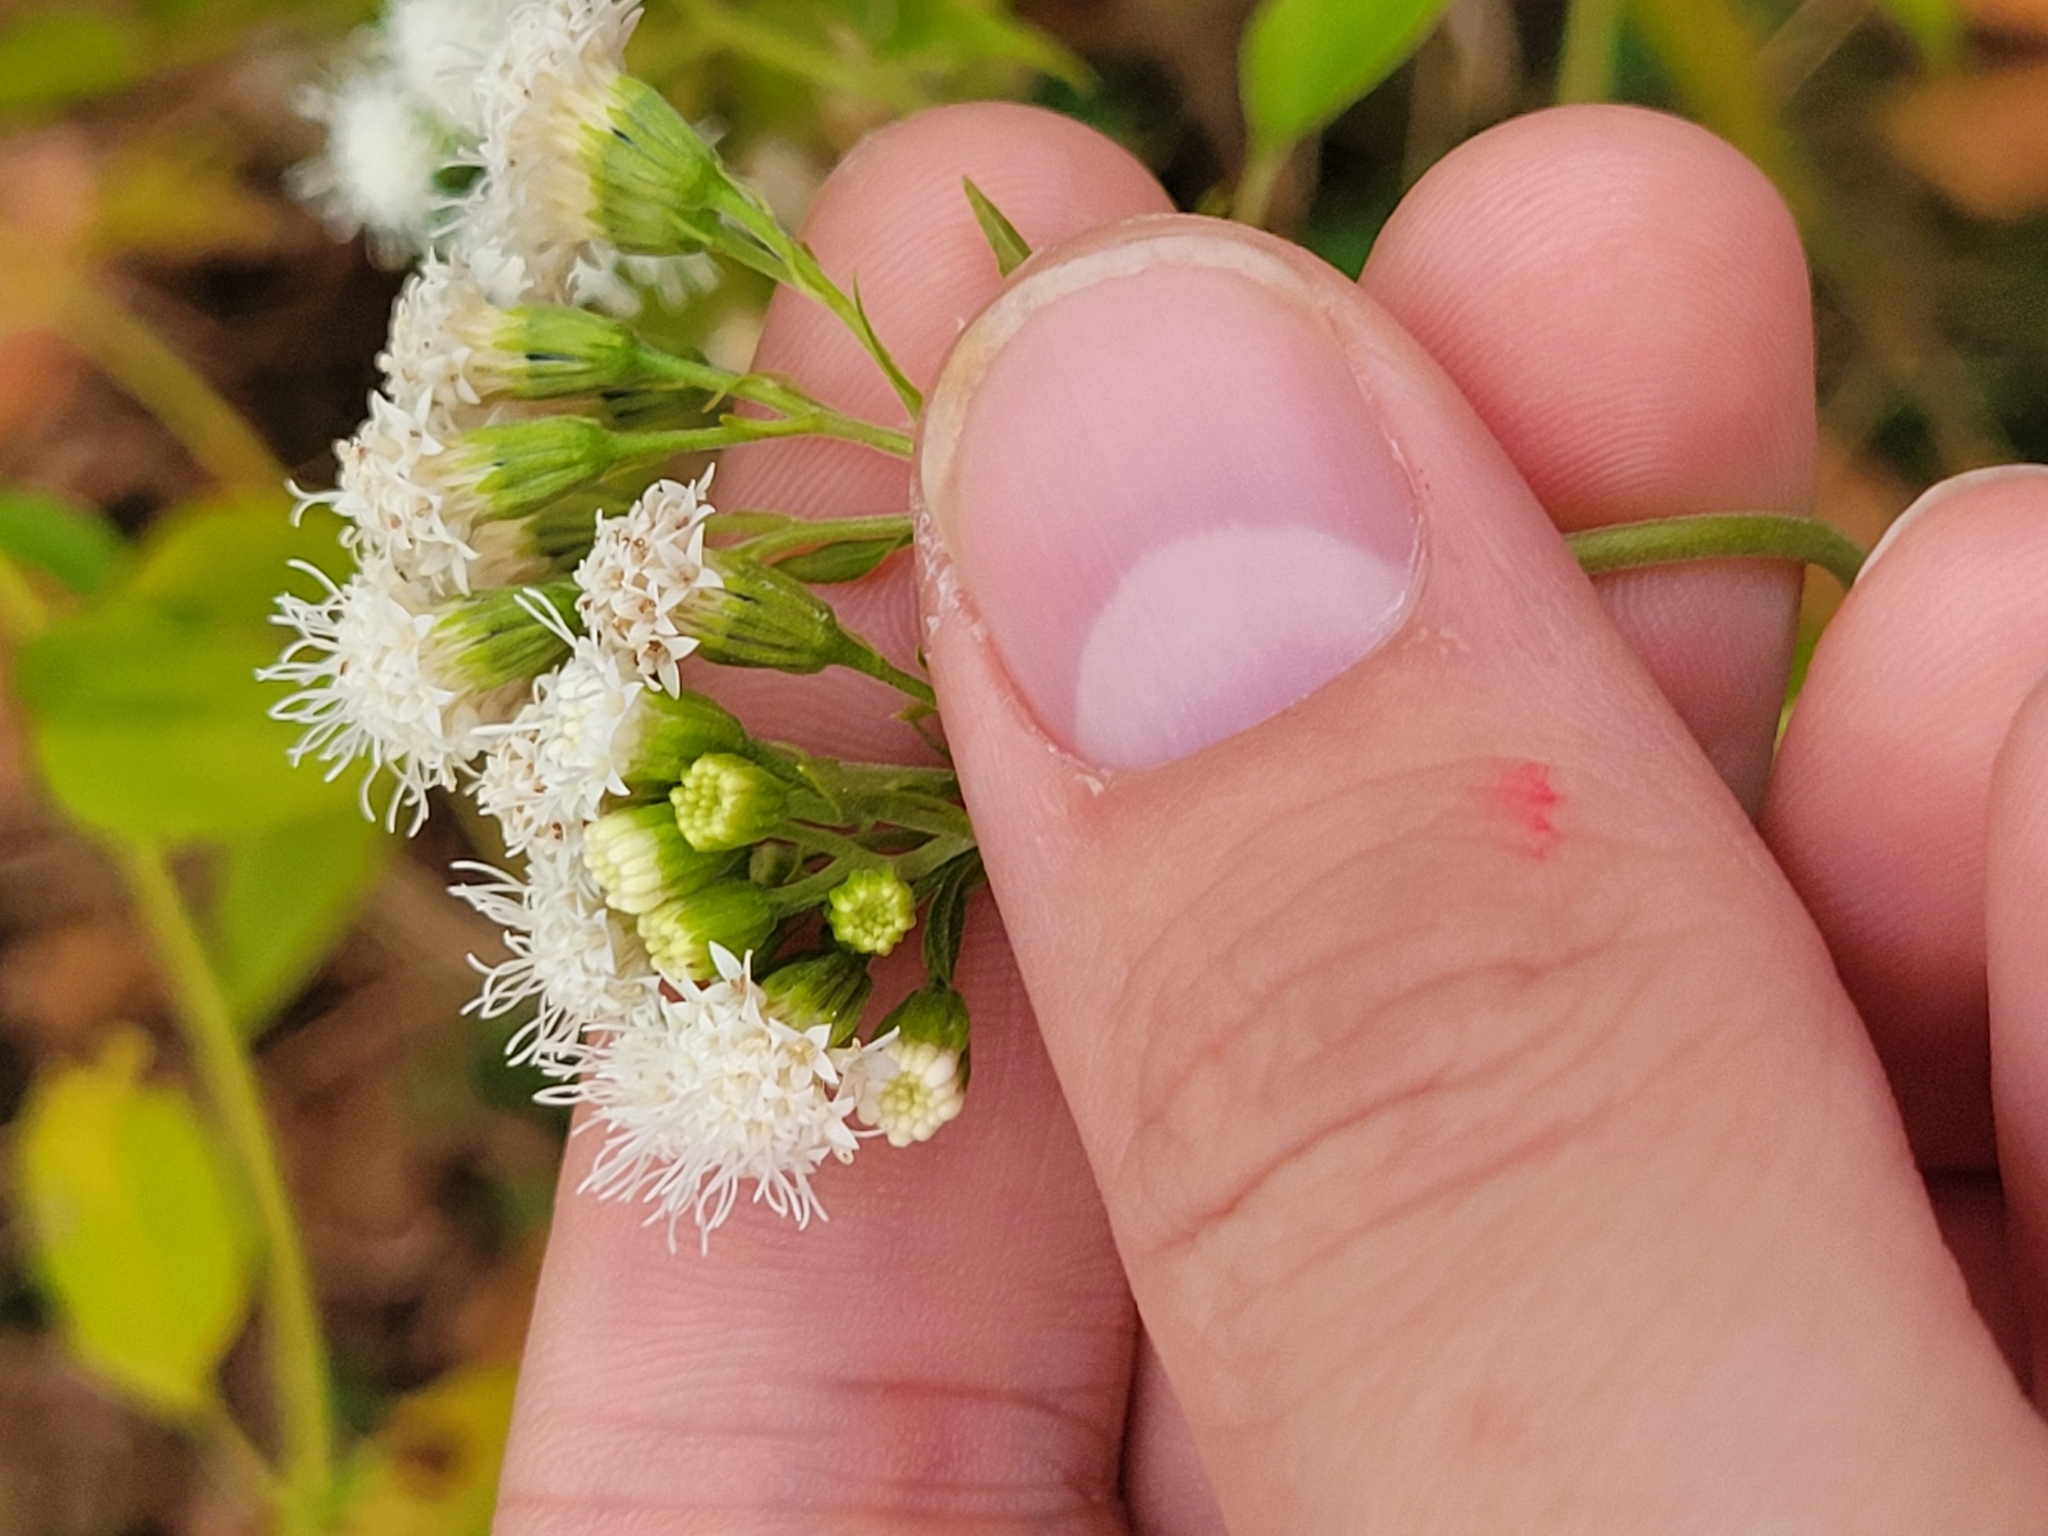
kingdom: Plantae
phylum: Tracheophyta
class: Magnoliopsida
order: Asterales
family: Asteraceae
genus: Ageratina
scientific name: Ageratina altissima
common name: White snakeroot
